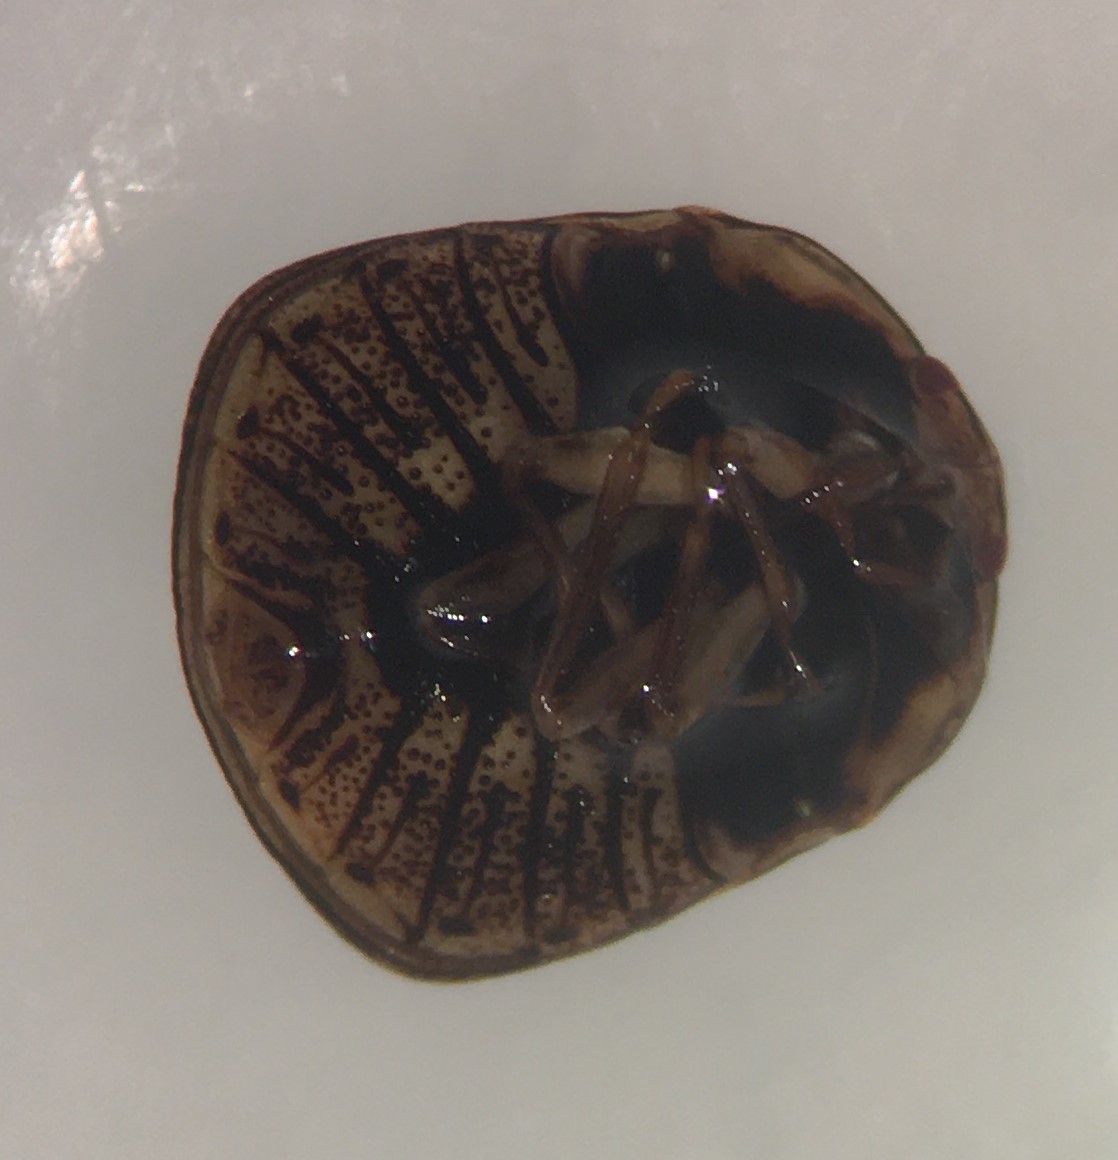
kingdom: Animalia
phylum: Arthropoda
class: Insecta
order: Hemiptera
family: Plataspidae
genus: Megacopta
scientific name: Megacopta cribraria
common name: Bean plataspid
